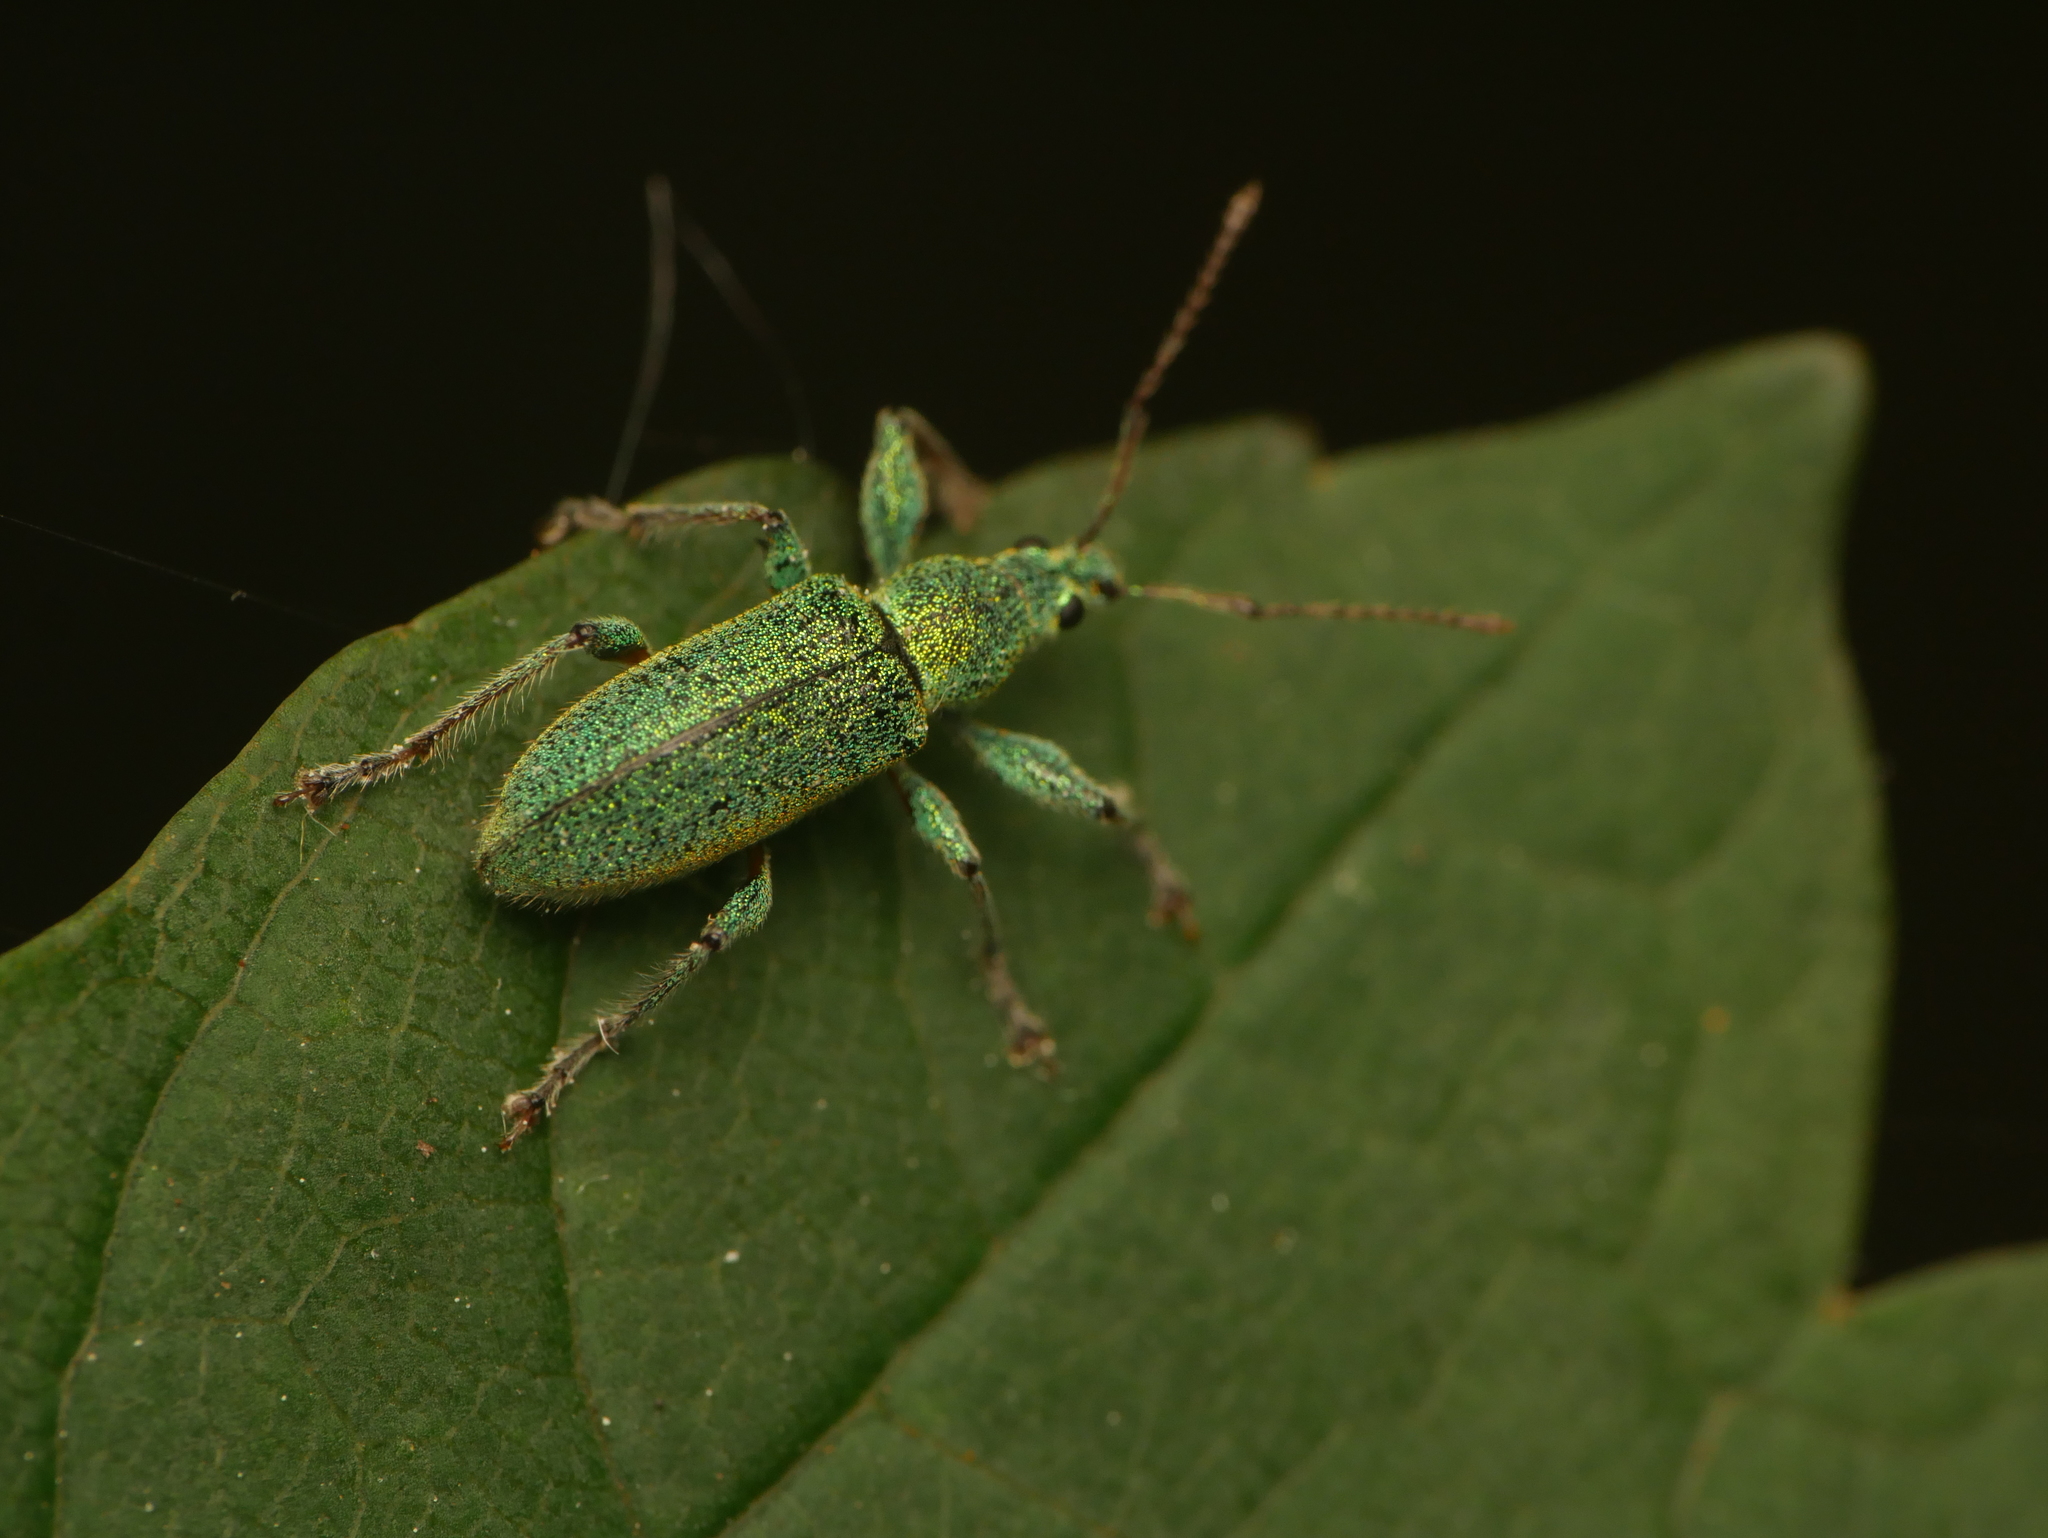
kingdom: Animalia
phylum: Arthropoda
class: Insecta
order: Coleoptera
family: Curculionidae
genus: Phyllobius
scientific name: Phyllobius arborator
